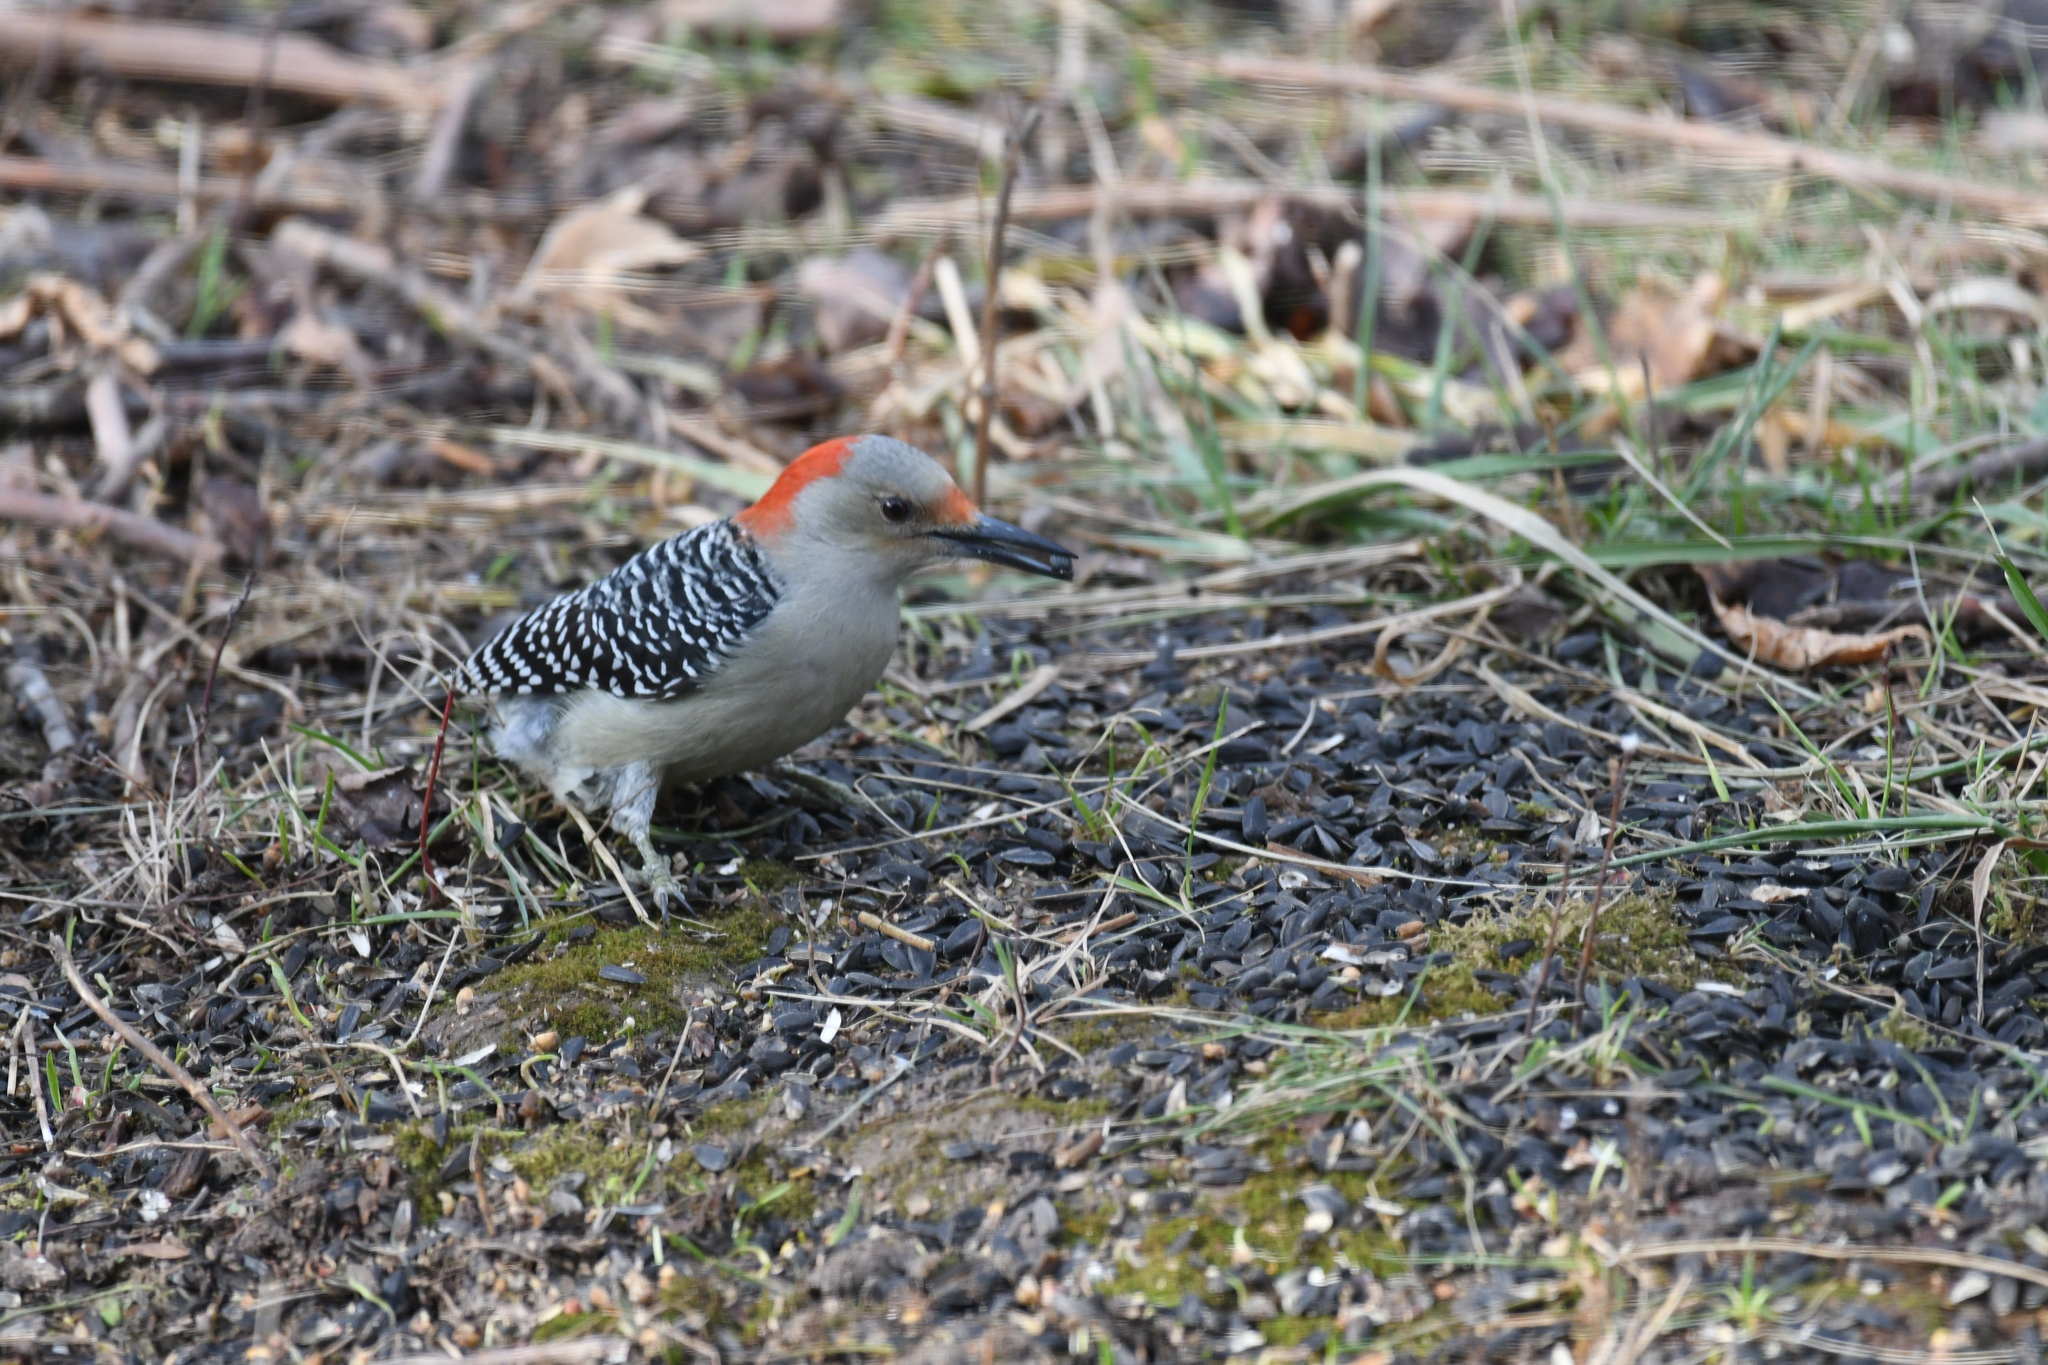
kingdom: Animalia
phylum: Chordata
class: Aves
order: Piciformes
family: Picidae
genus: Melanerpes
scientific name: Melanerpes carolinus
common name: Red-bellied woodpecker
